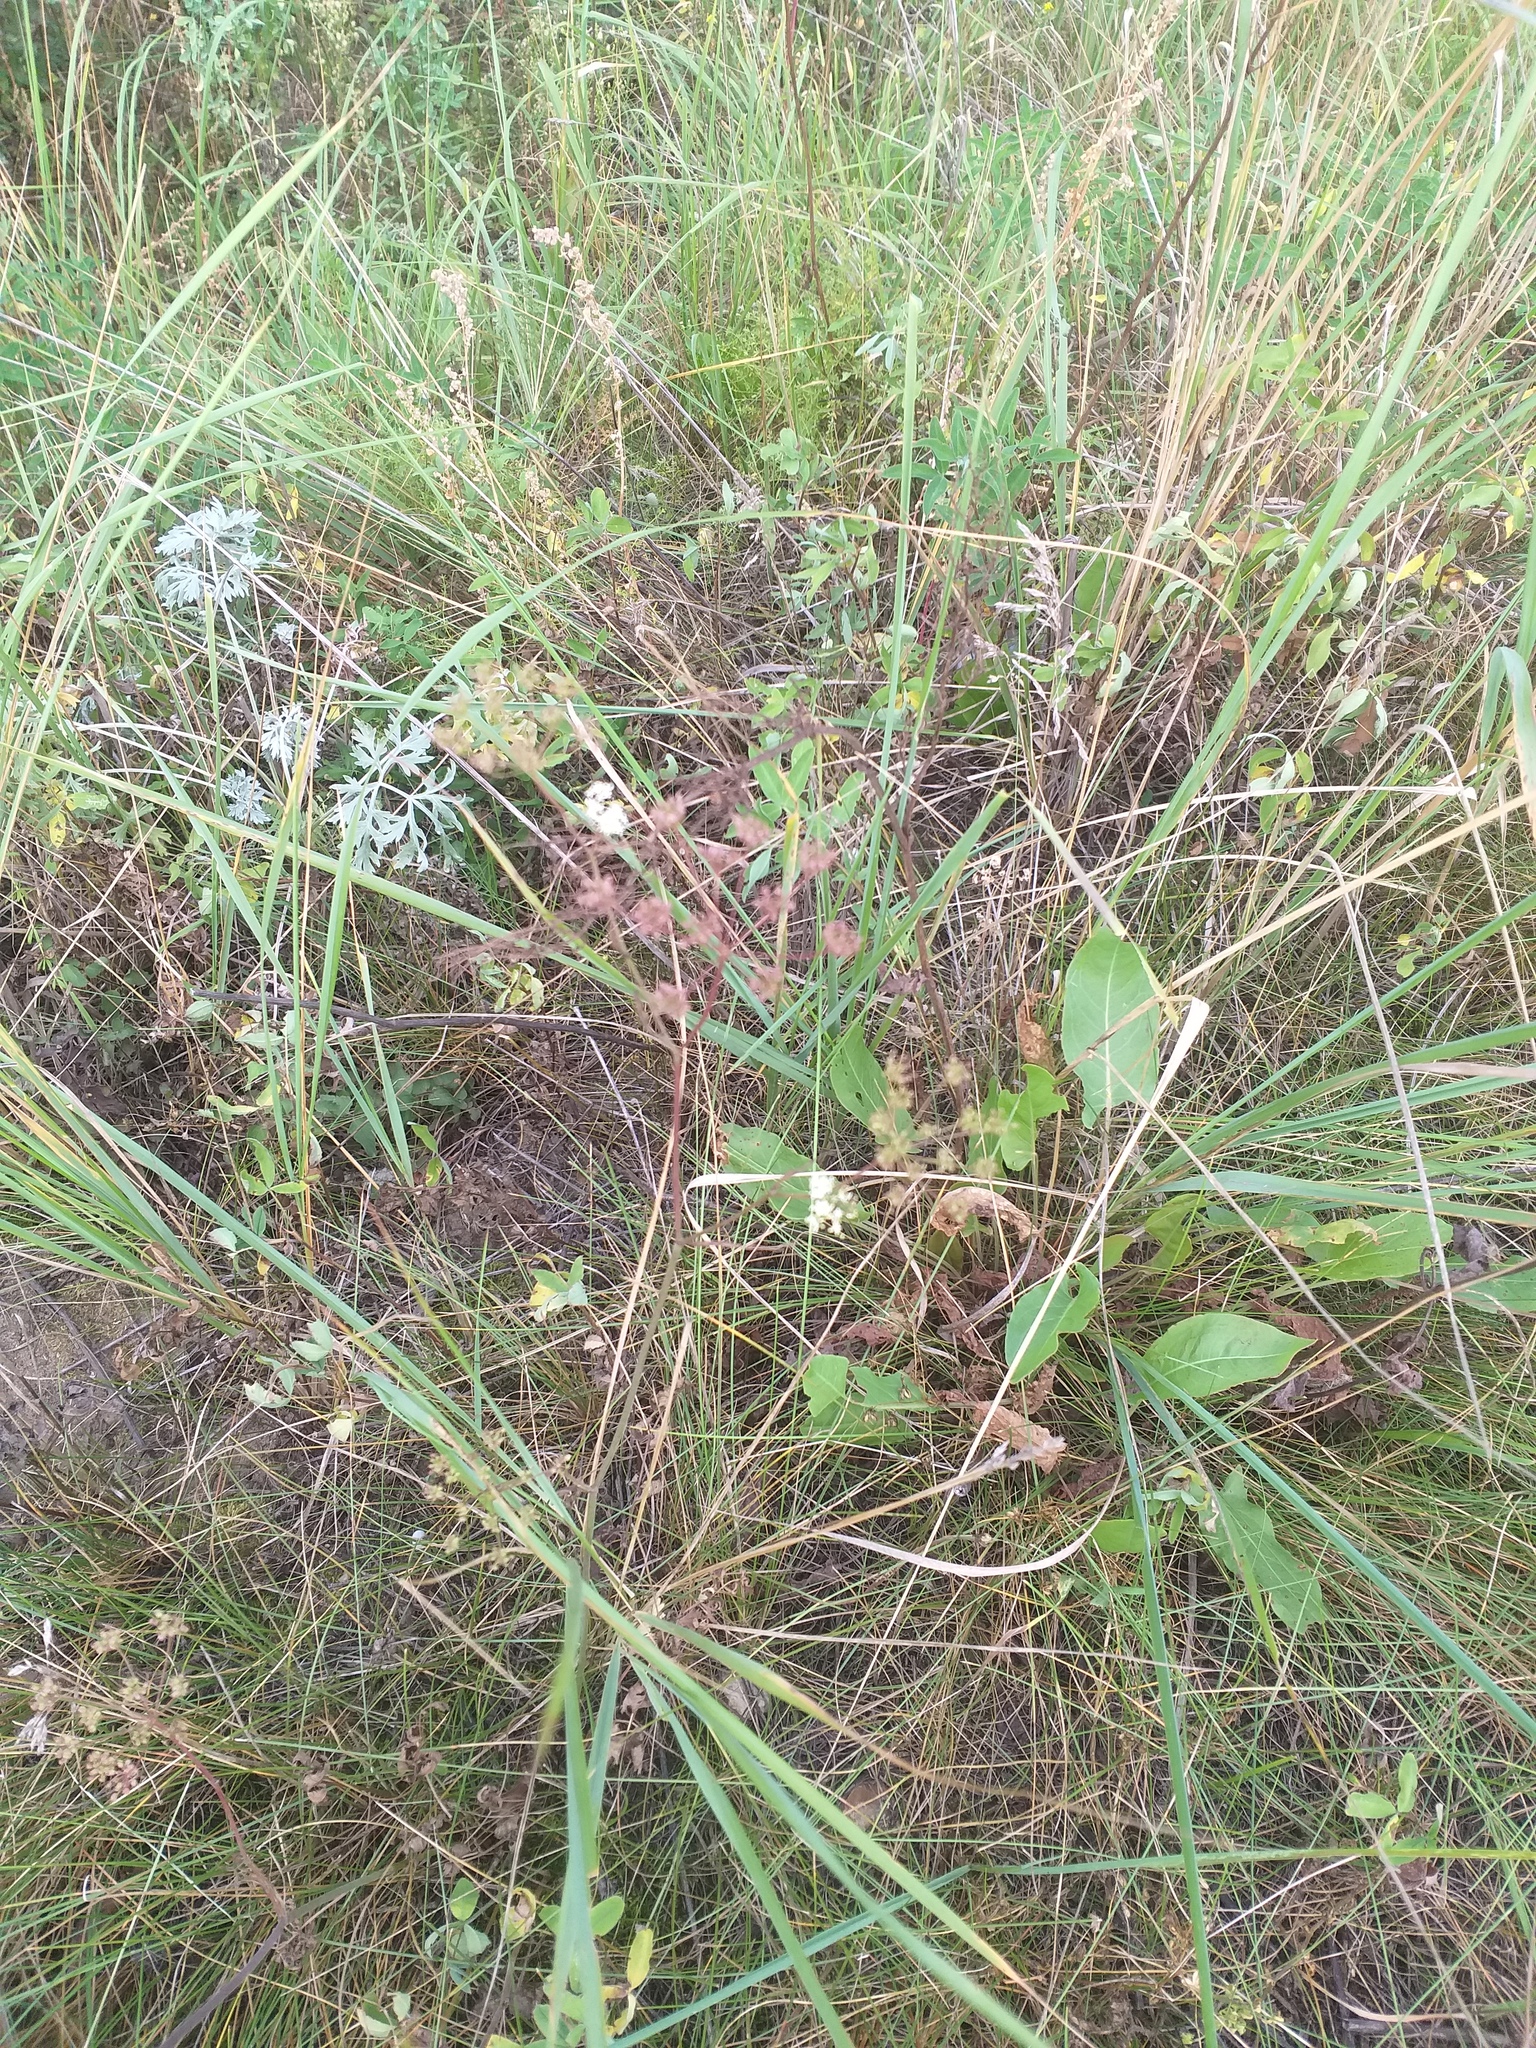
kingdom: Plantae
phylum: Tracheophyta
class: Magnoliopsida
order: Apiales
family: Apiaceae
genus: Pimpinella
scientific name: Pimpinella saxifraga
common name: Burnet-saxifrage
